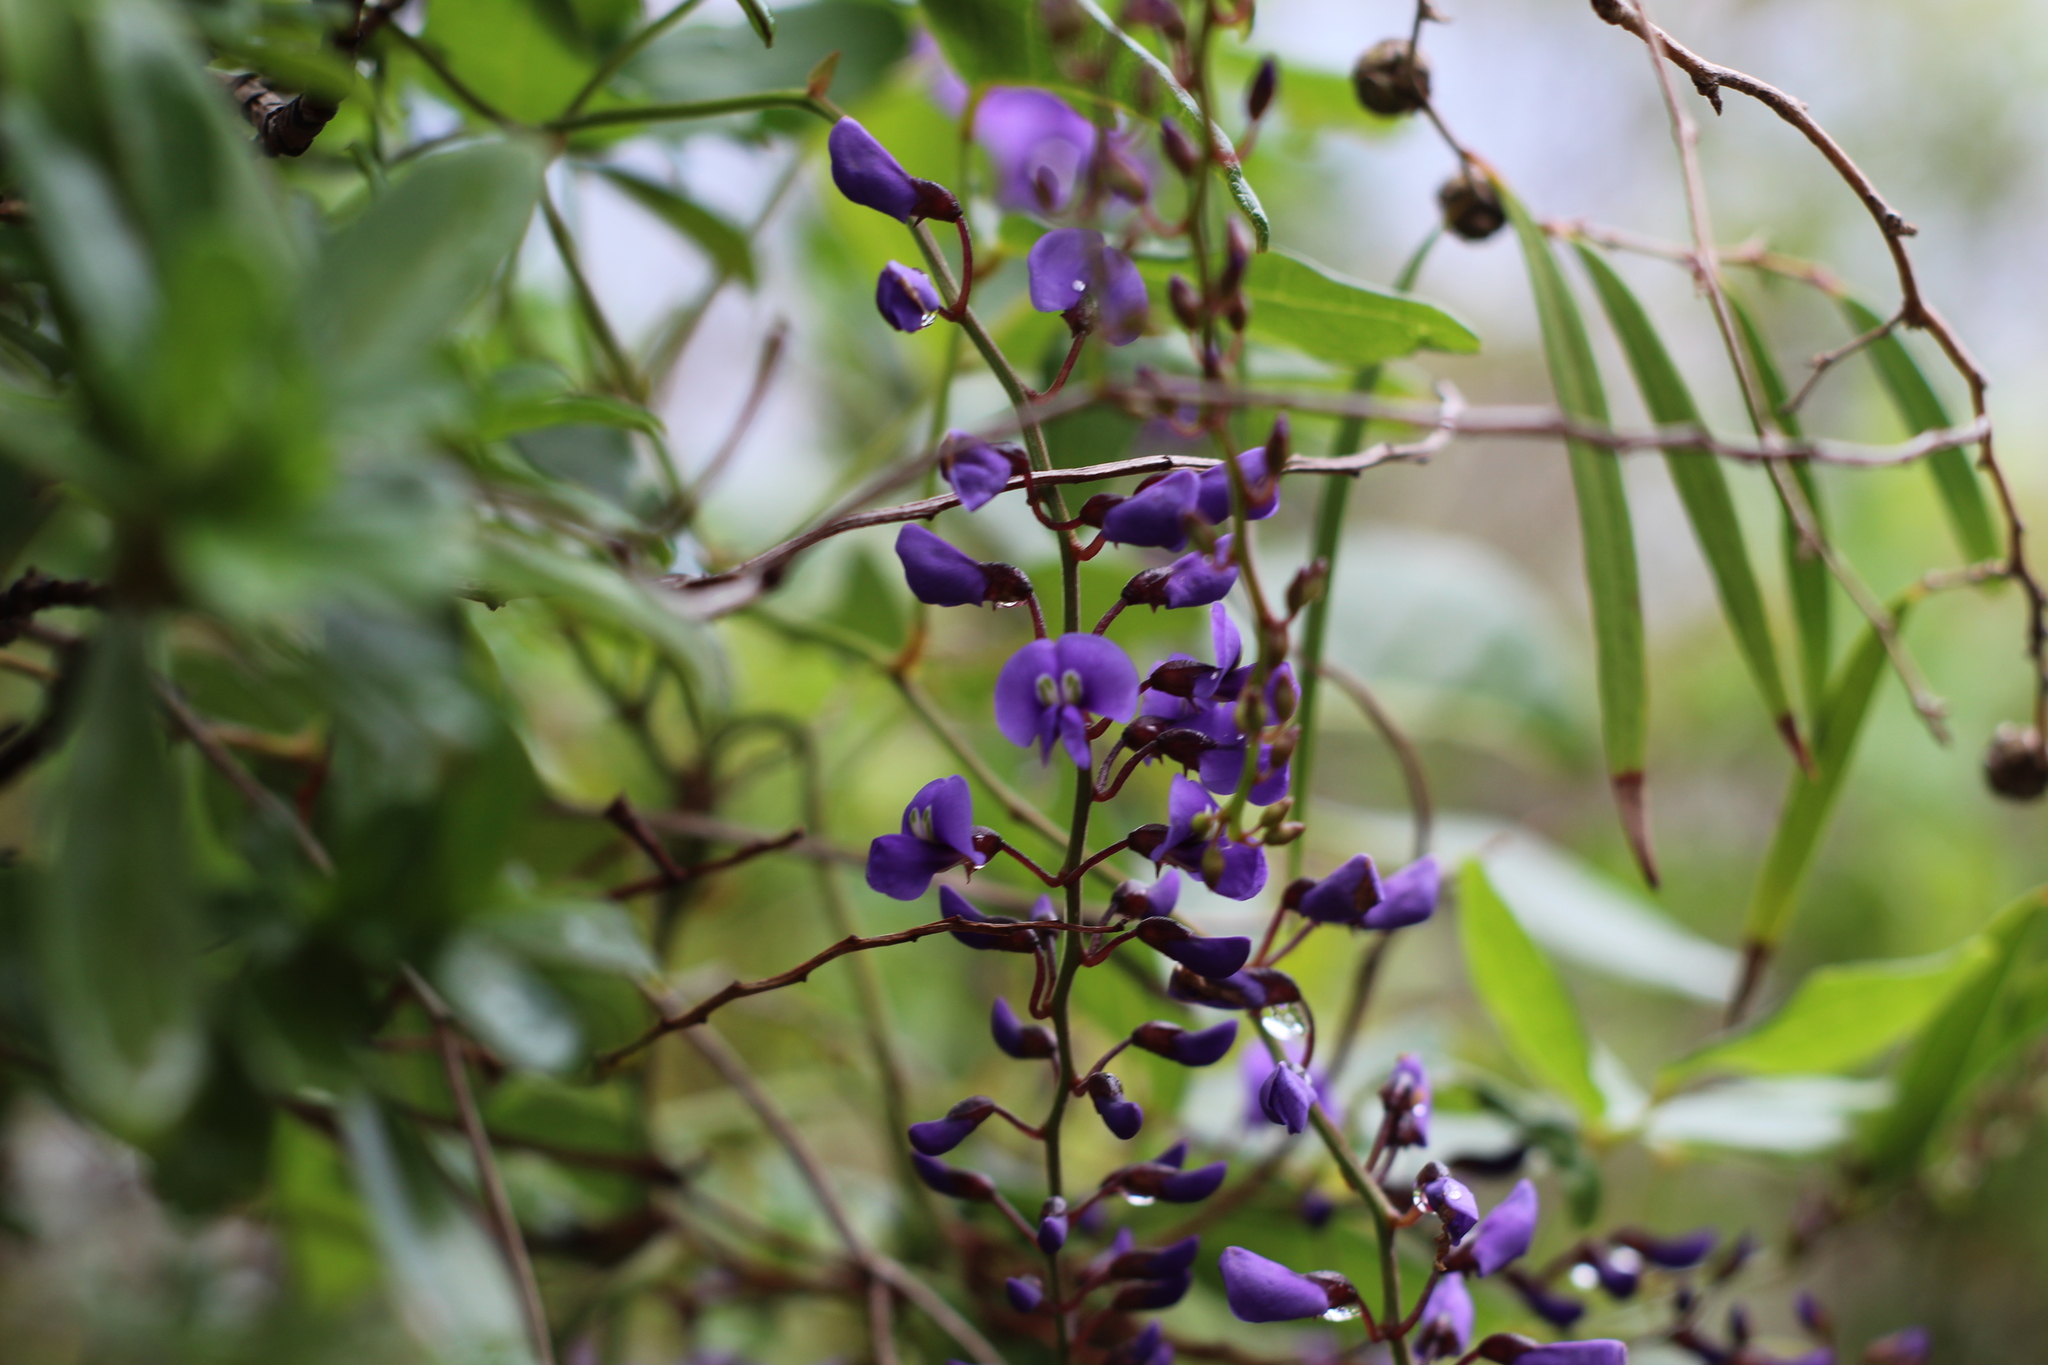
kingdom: Plantae
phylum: Tracheophyta
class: Magnoliopsida
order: Fabales
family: Fabaceae
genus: Hardenbergia
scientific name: Hardenbergia comptoniana
